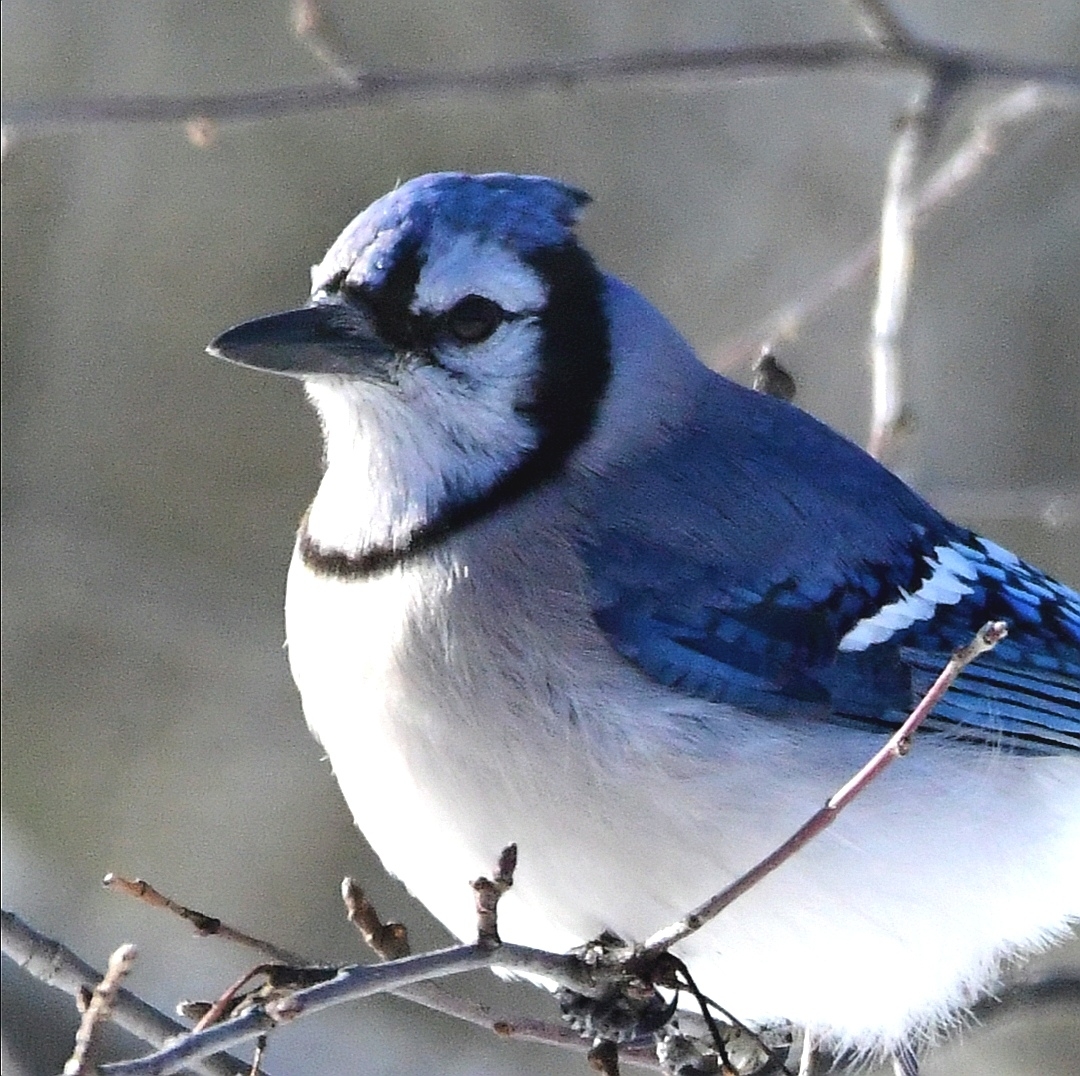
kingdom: Animalia
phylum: Chordata
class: Aves
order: Passeriformes
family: Corvidae
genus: Cyanocitta
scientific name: Cyanocitta cristata
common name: Blue jay
